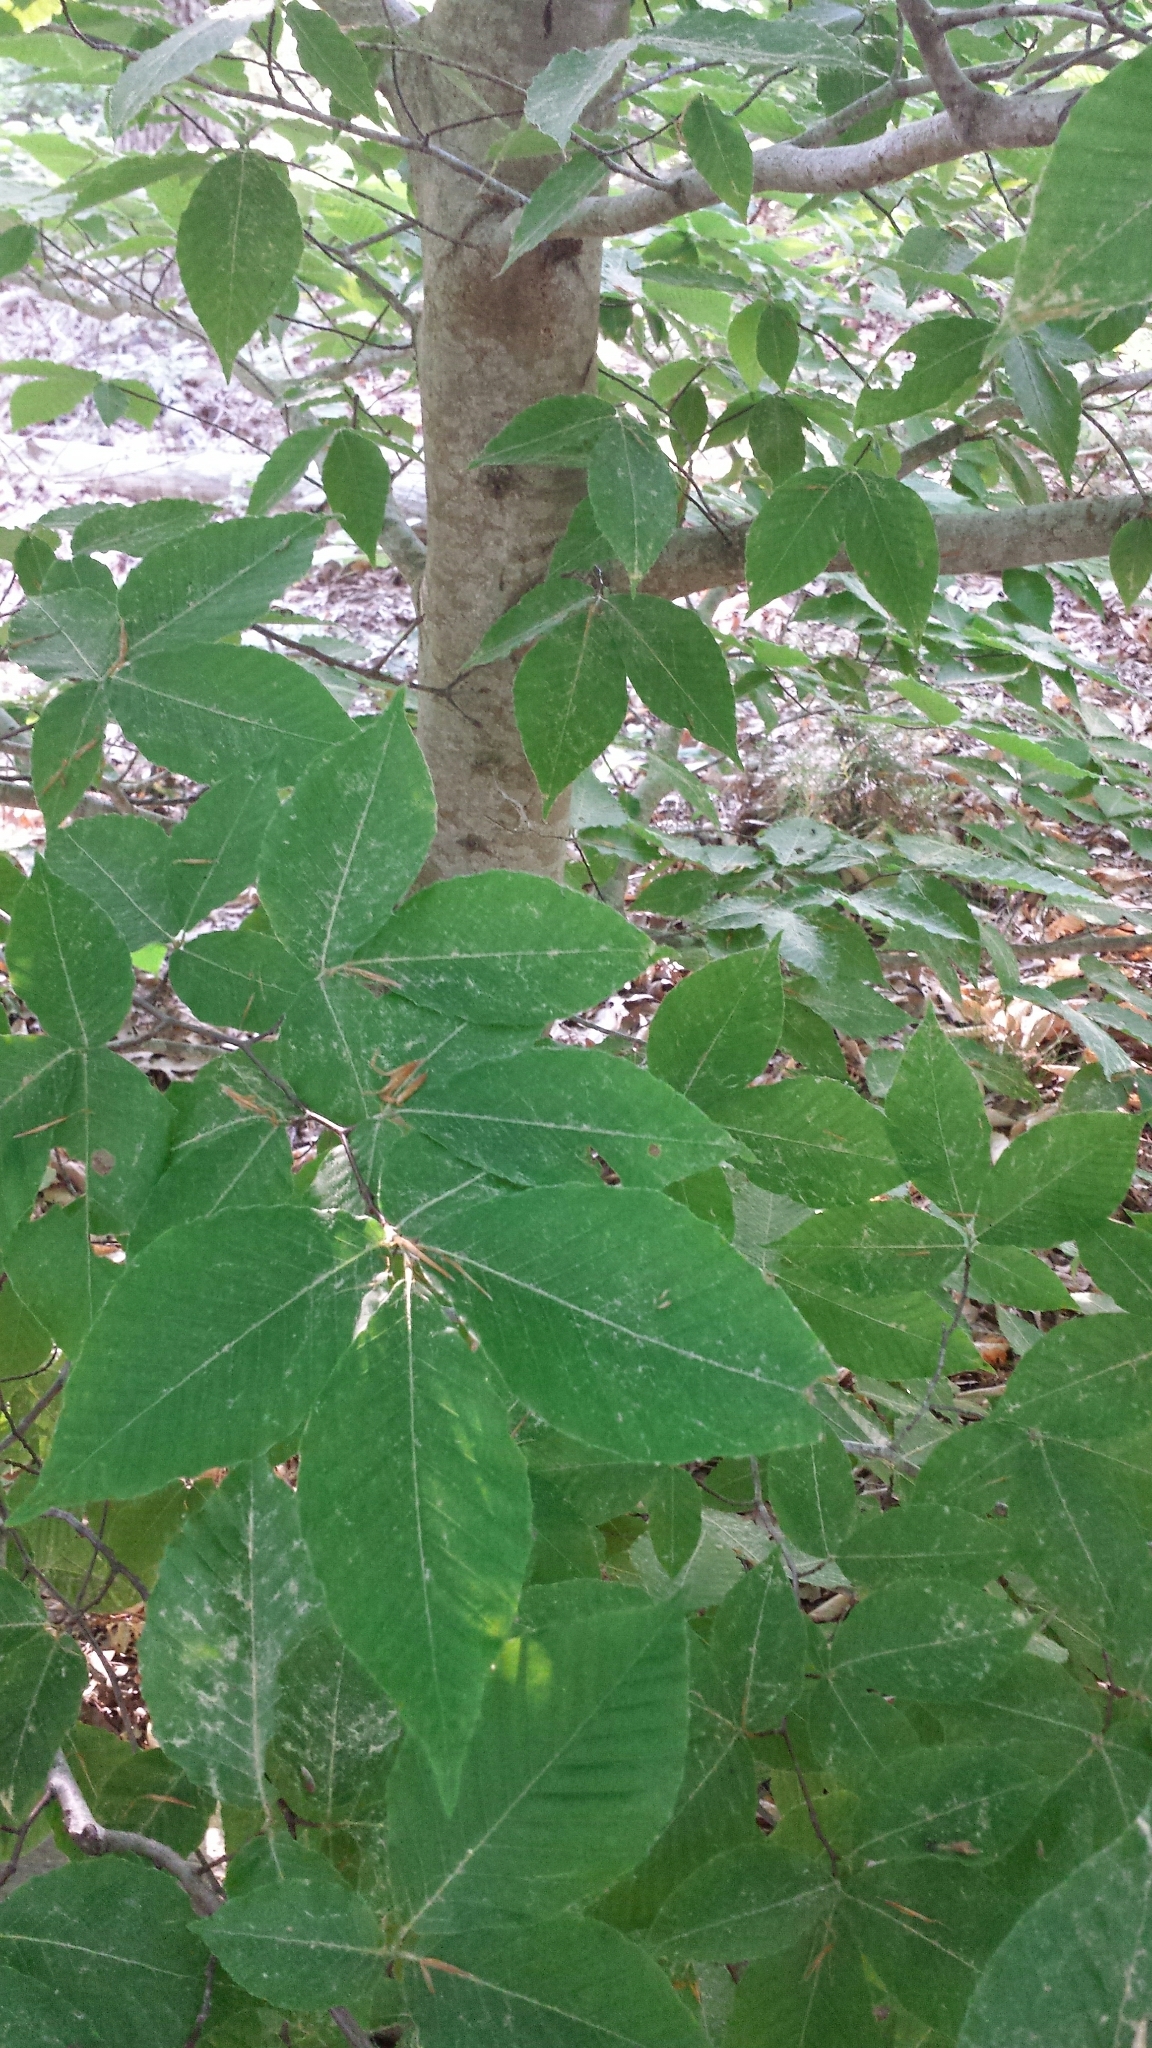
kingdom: Plantae
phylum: Tracheophyta
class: Magnoliopsida
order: Fagales
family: Fagaceae
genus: Fagus
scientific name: Fagus grandifolia
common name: American beech
